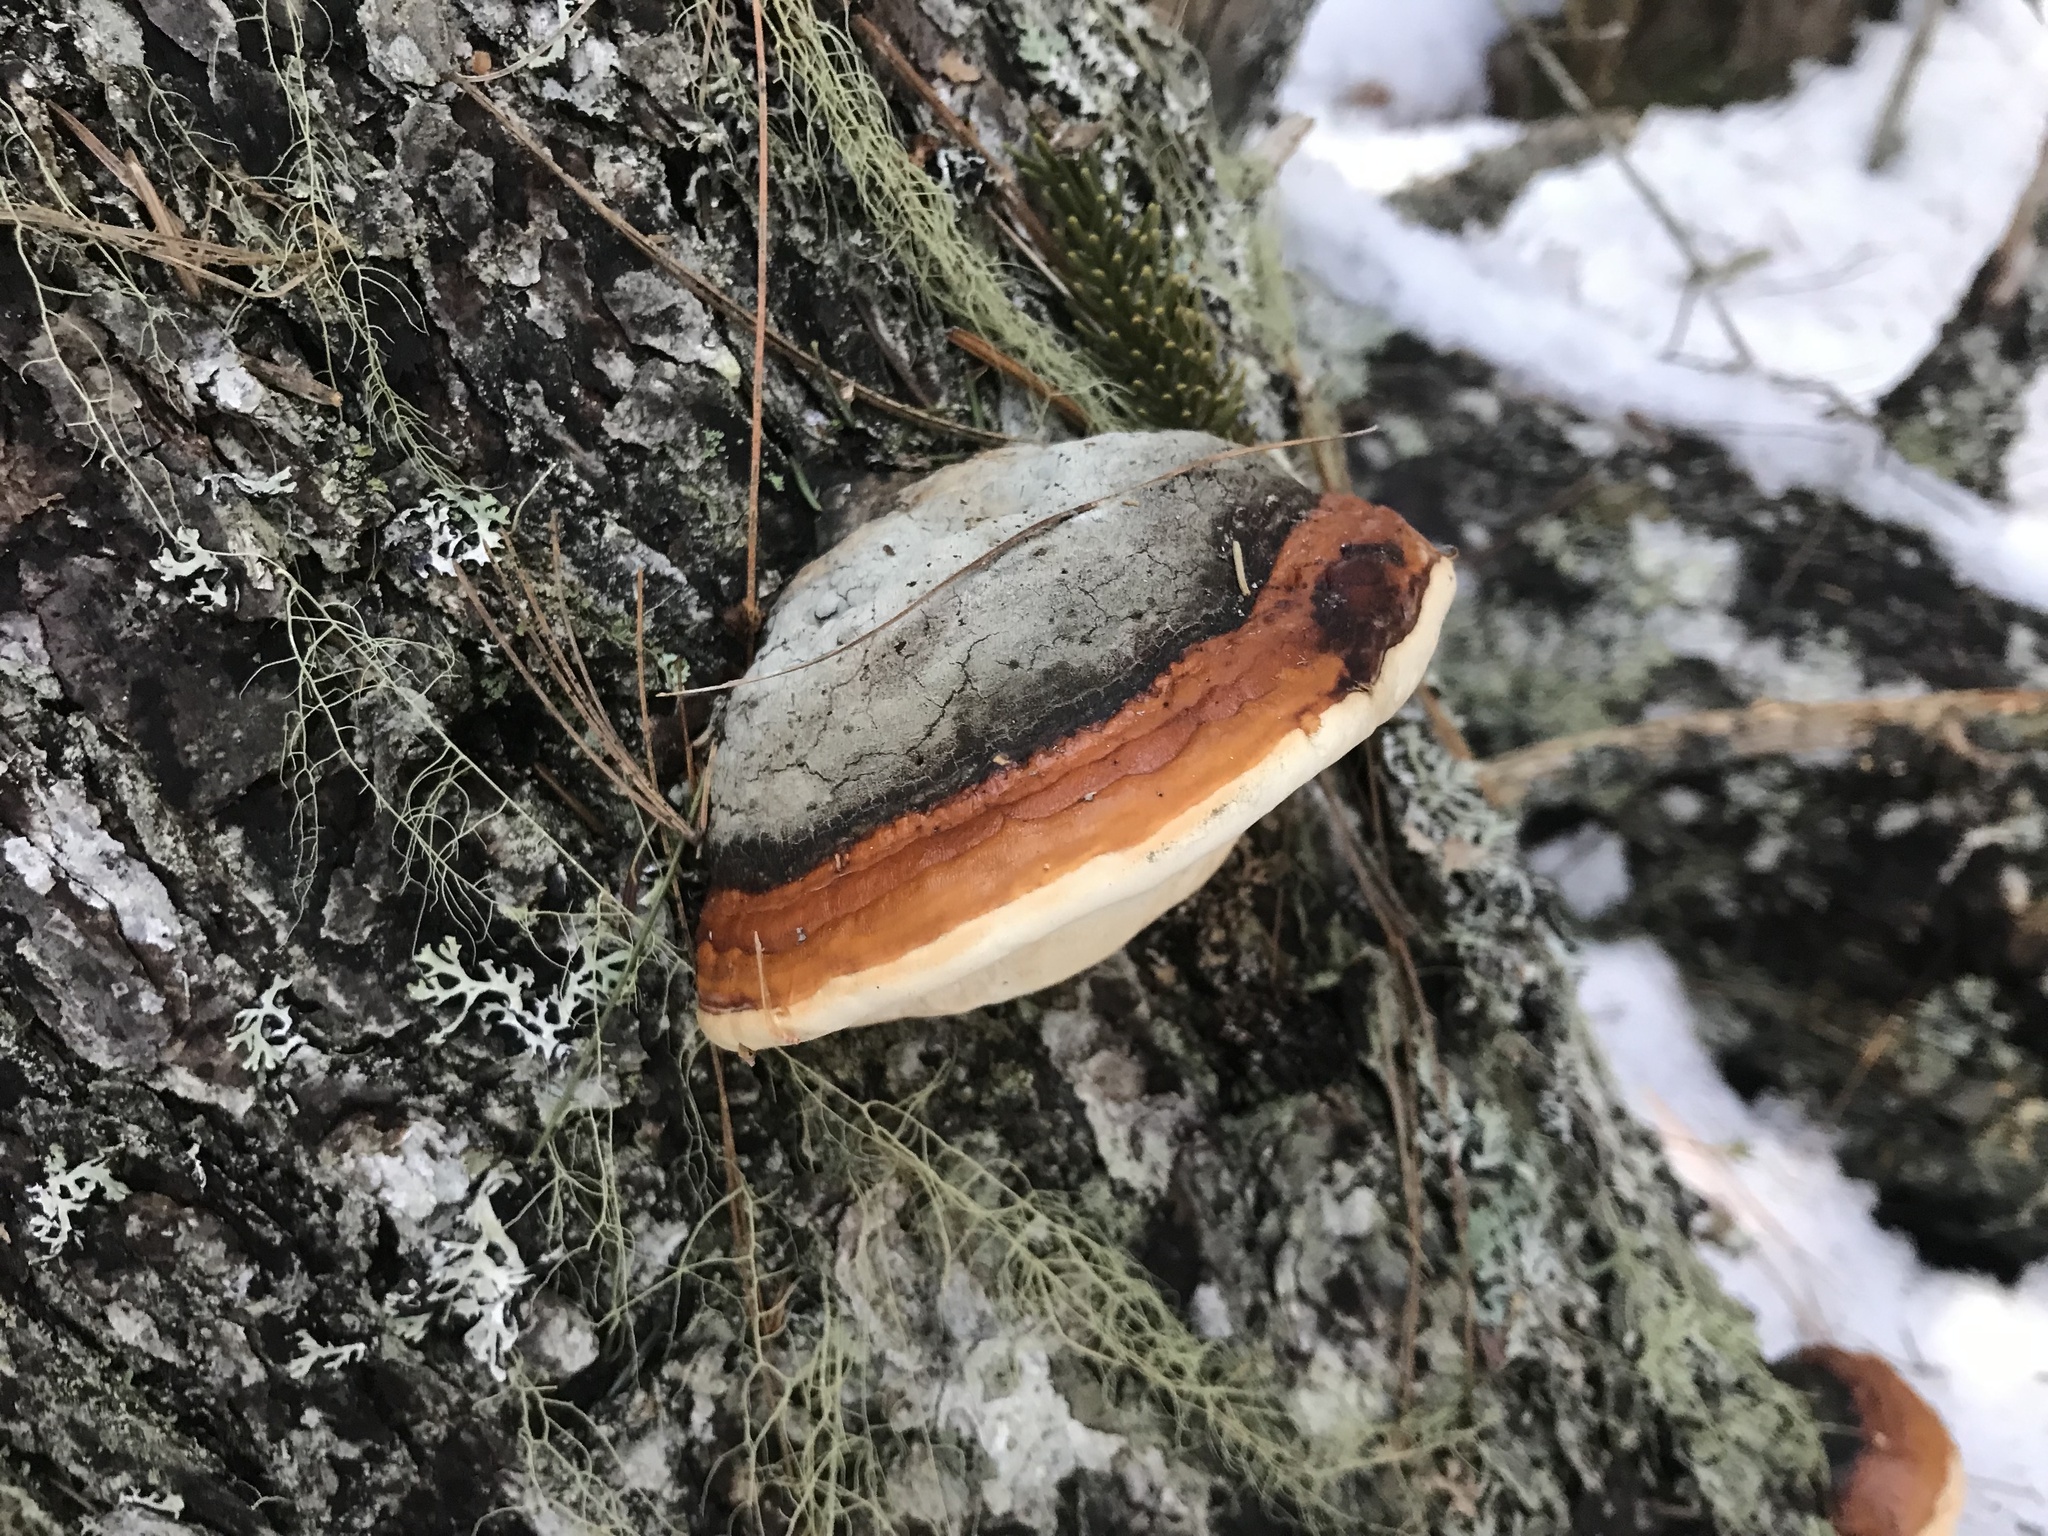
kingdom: Fungi
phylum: Basidiomycota
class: Agaricomycetes
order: Polyporales
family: Fomitopsidaceae
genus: Fomitopsis
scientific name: Fomitopsis mounceae
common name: Northern red belt
